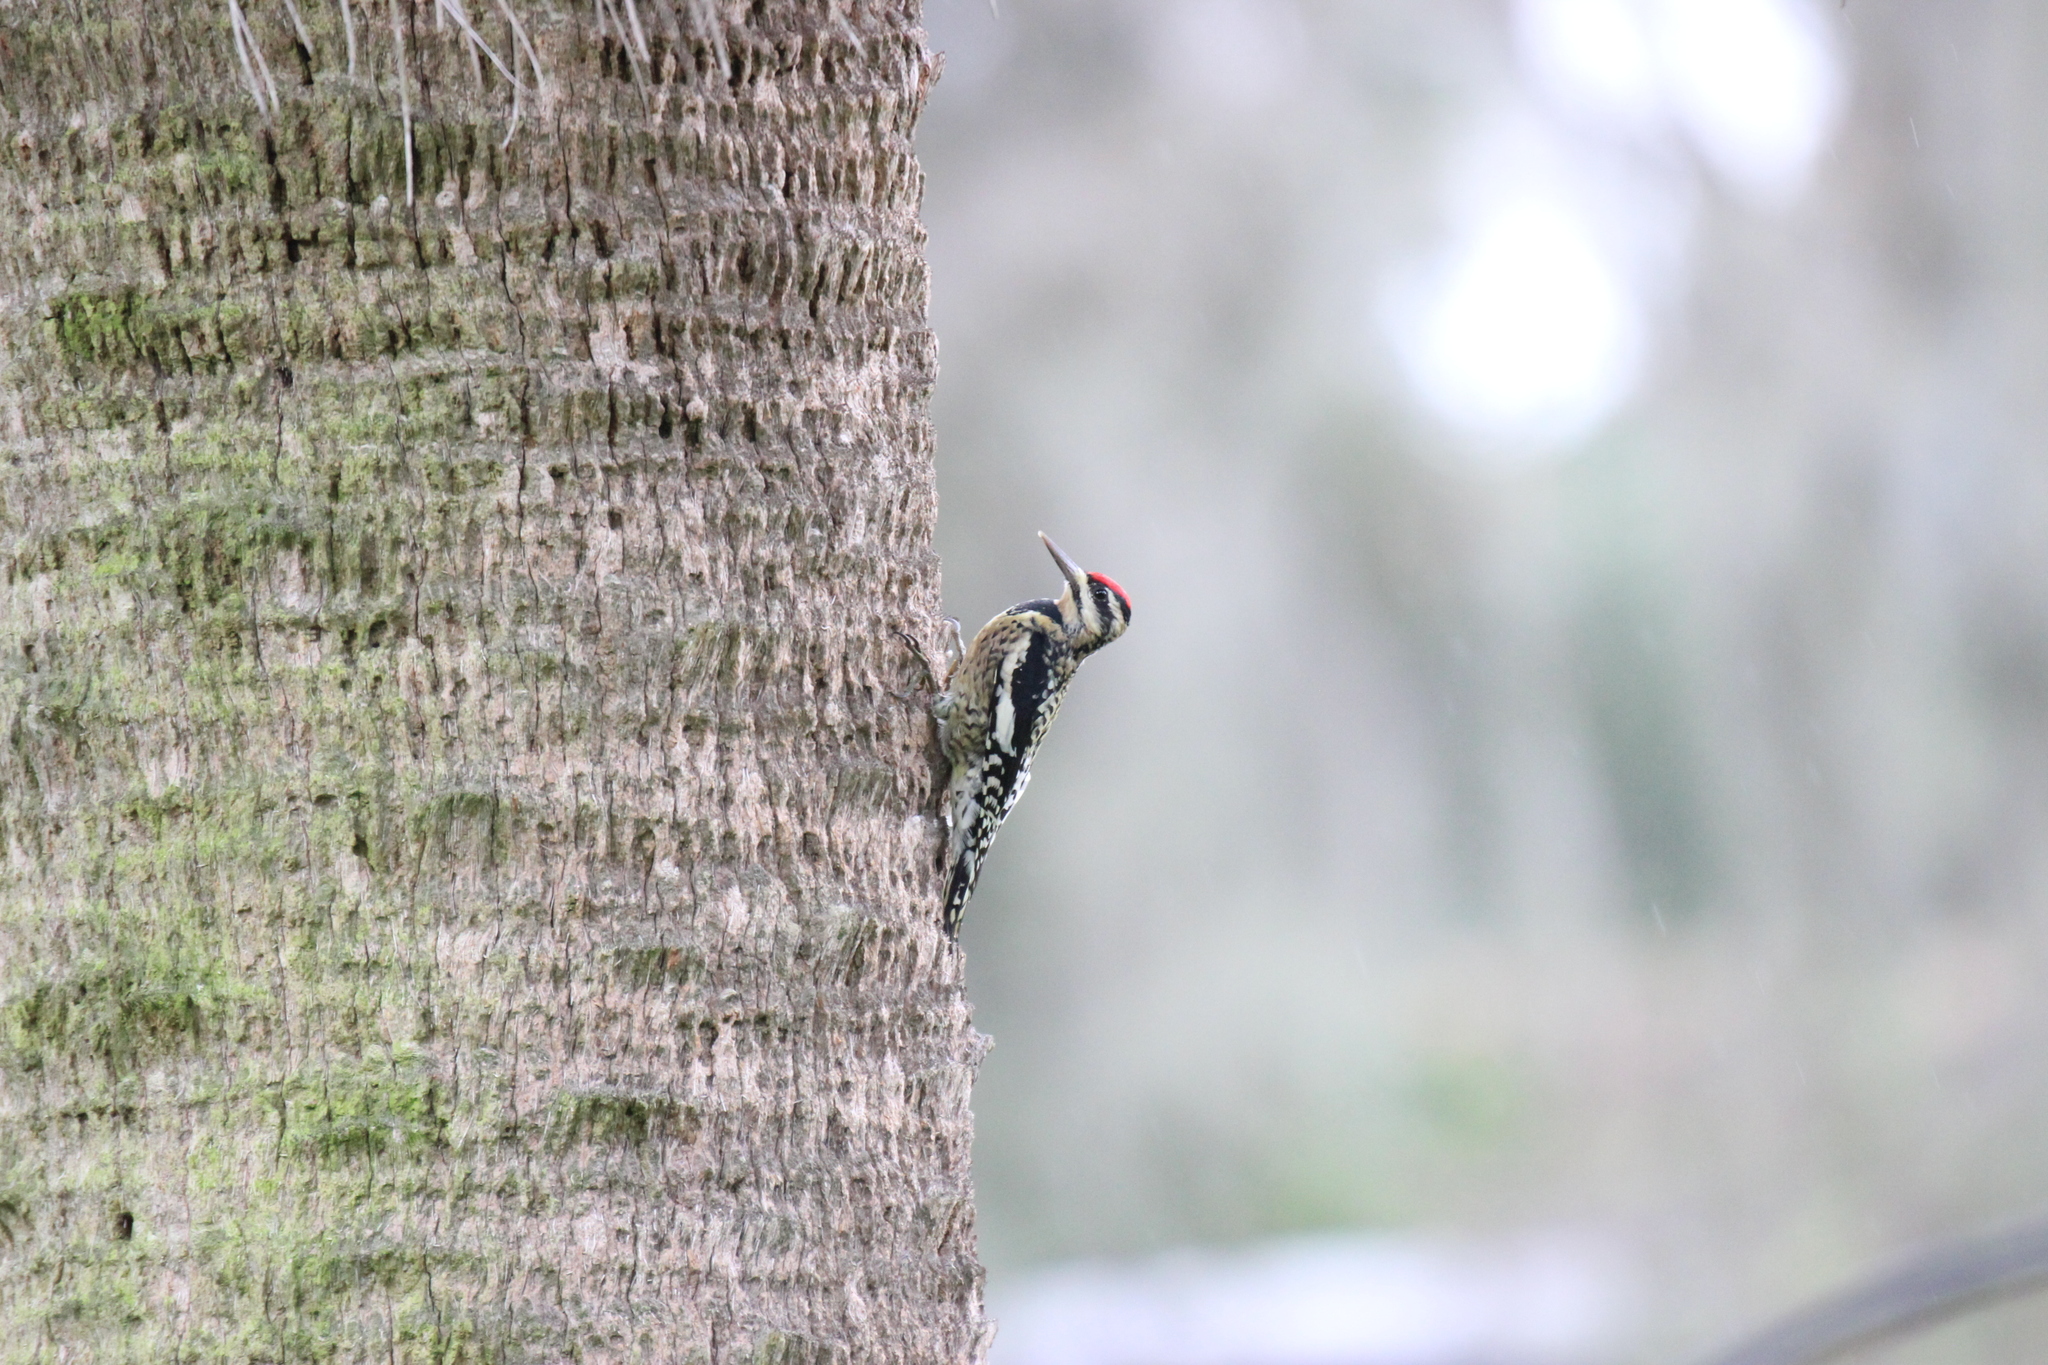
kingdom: Animalia
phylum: Chordata
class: Aves
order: Piciformes
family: Picidae
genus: Sphyrapicus
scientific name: Sphyrapicus varius
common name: Yellow-bellied sapsucker
